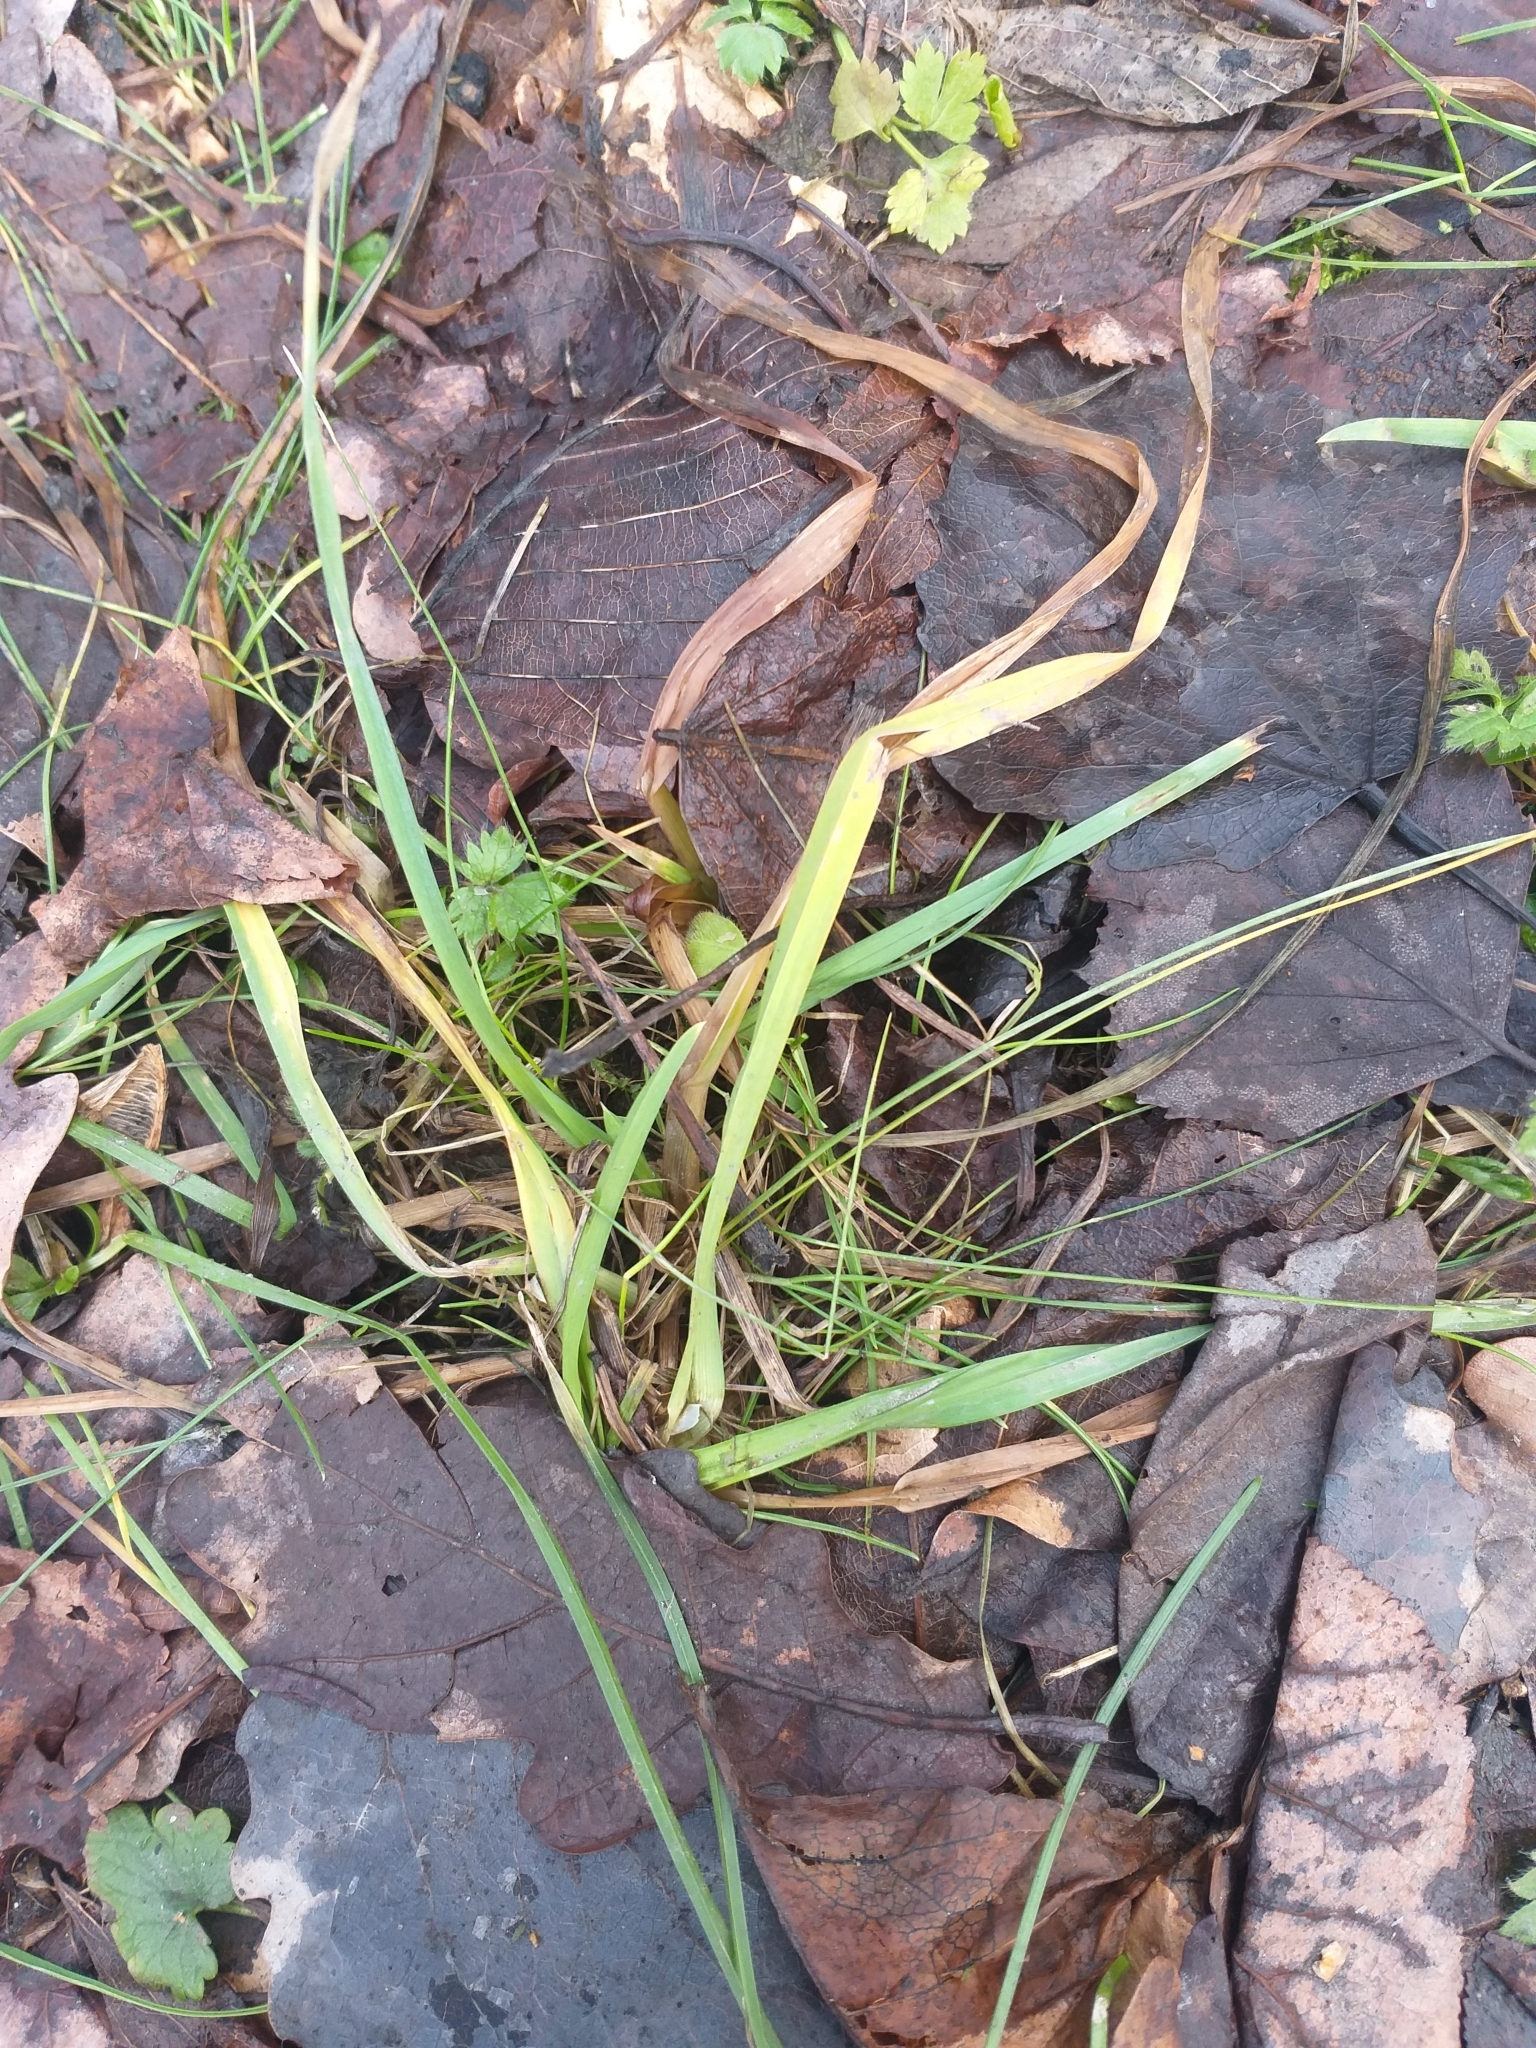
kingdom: Plantae
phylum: Tracheophyta
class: Liliopsida
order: Poales
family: Poaceae
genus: Dactylis
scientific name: Dactylis glomerata
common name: Orchardgrass
